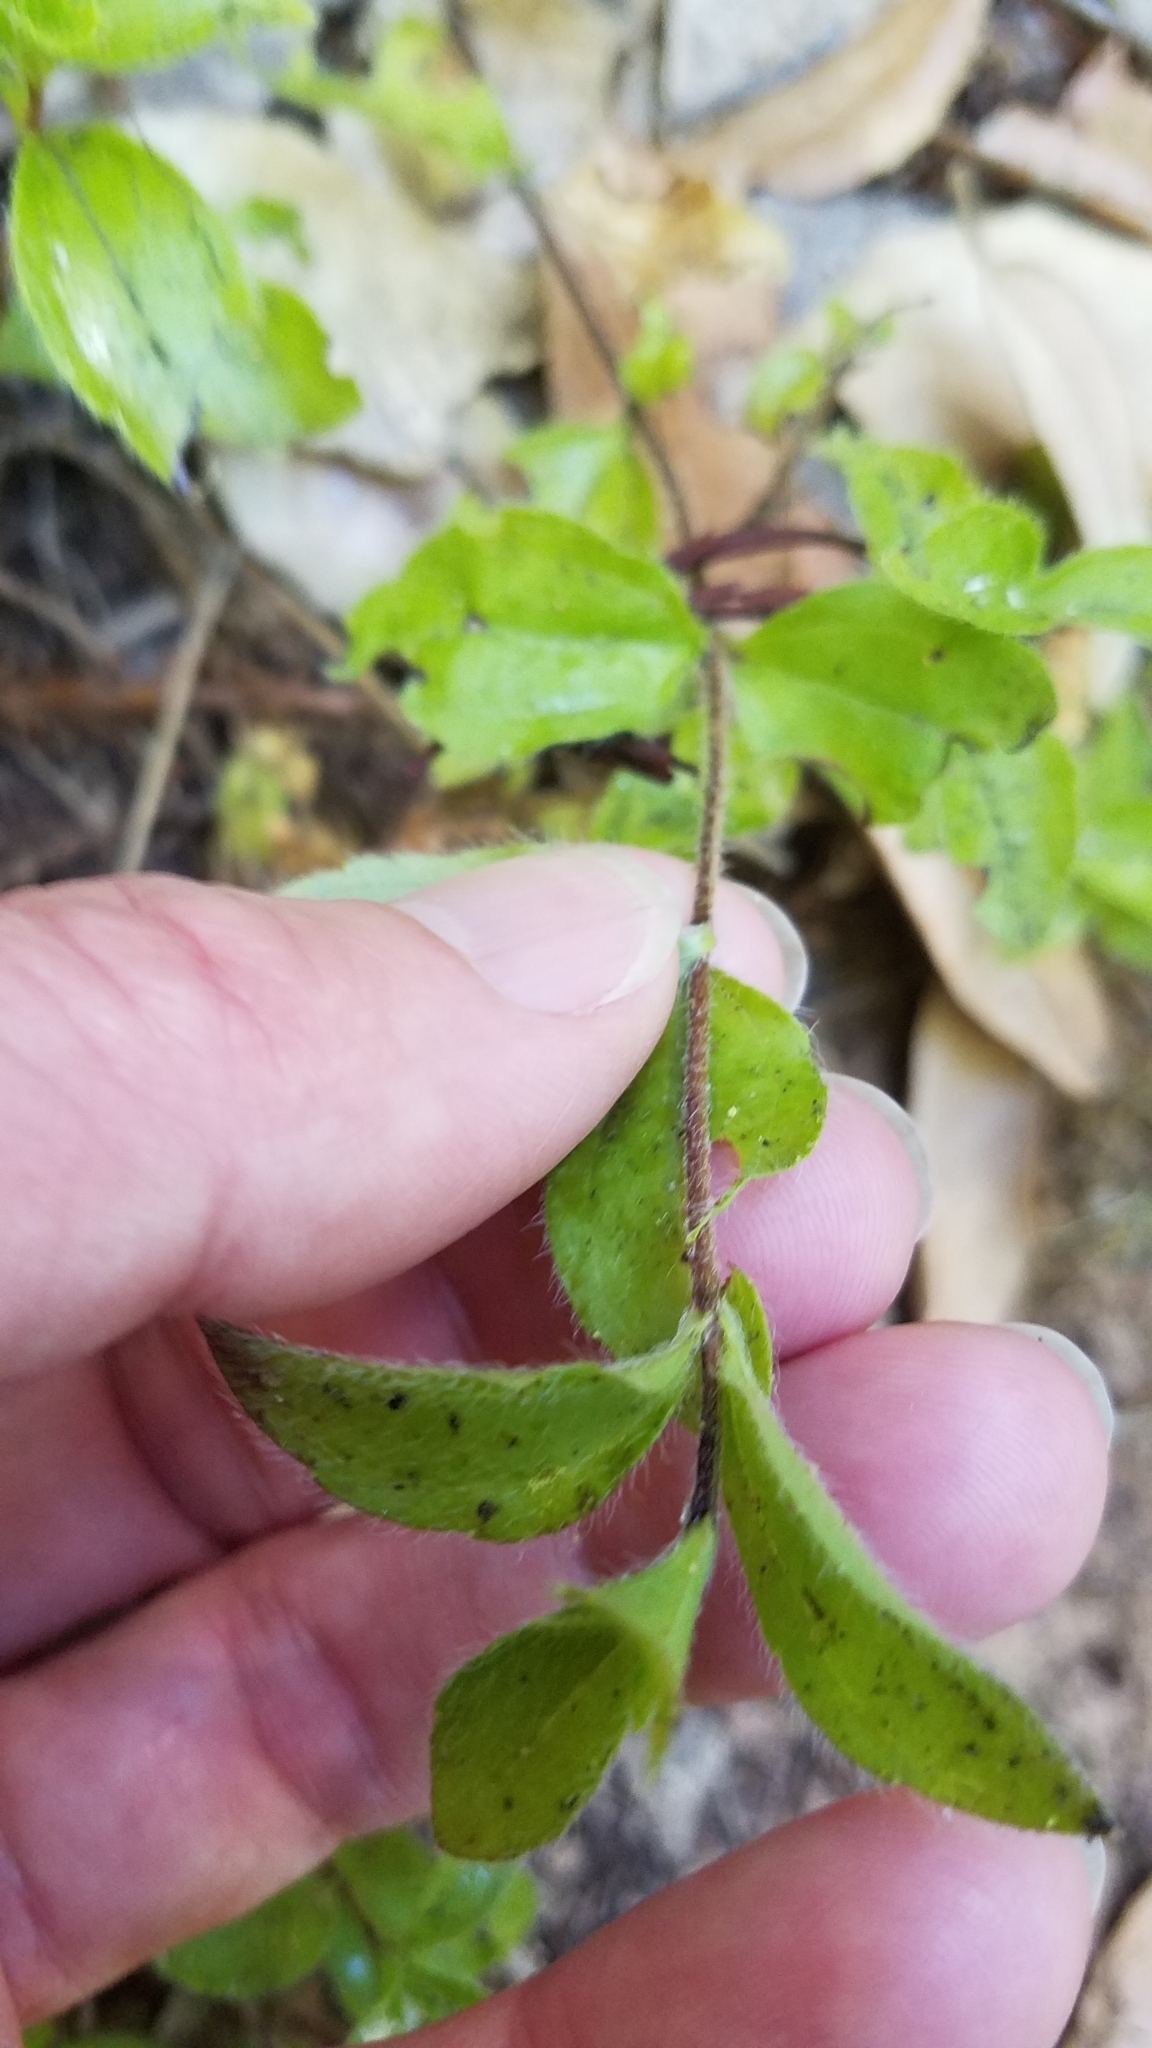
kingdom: Plantae
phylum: Tracheophyta
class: Magnoliopsida
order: Cornales
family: Hydrangeaceae
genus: Whipplea
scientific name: Whipplea modesta
